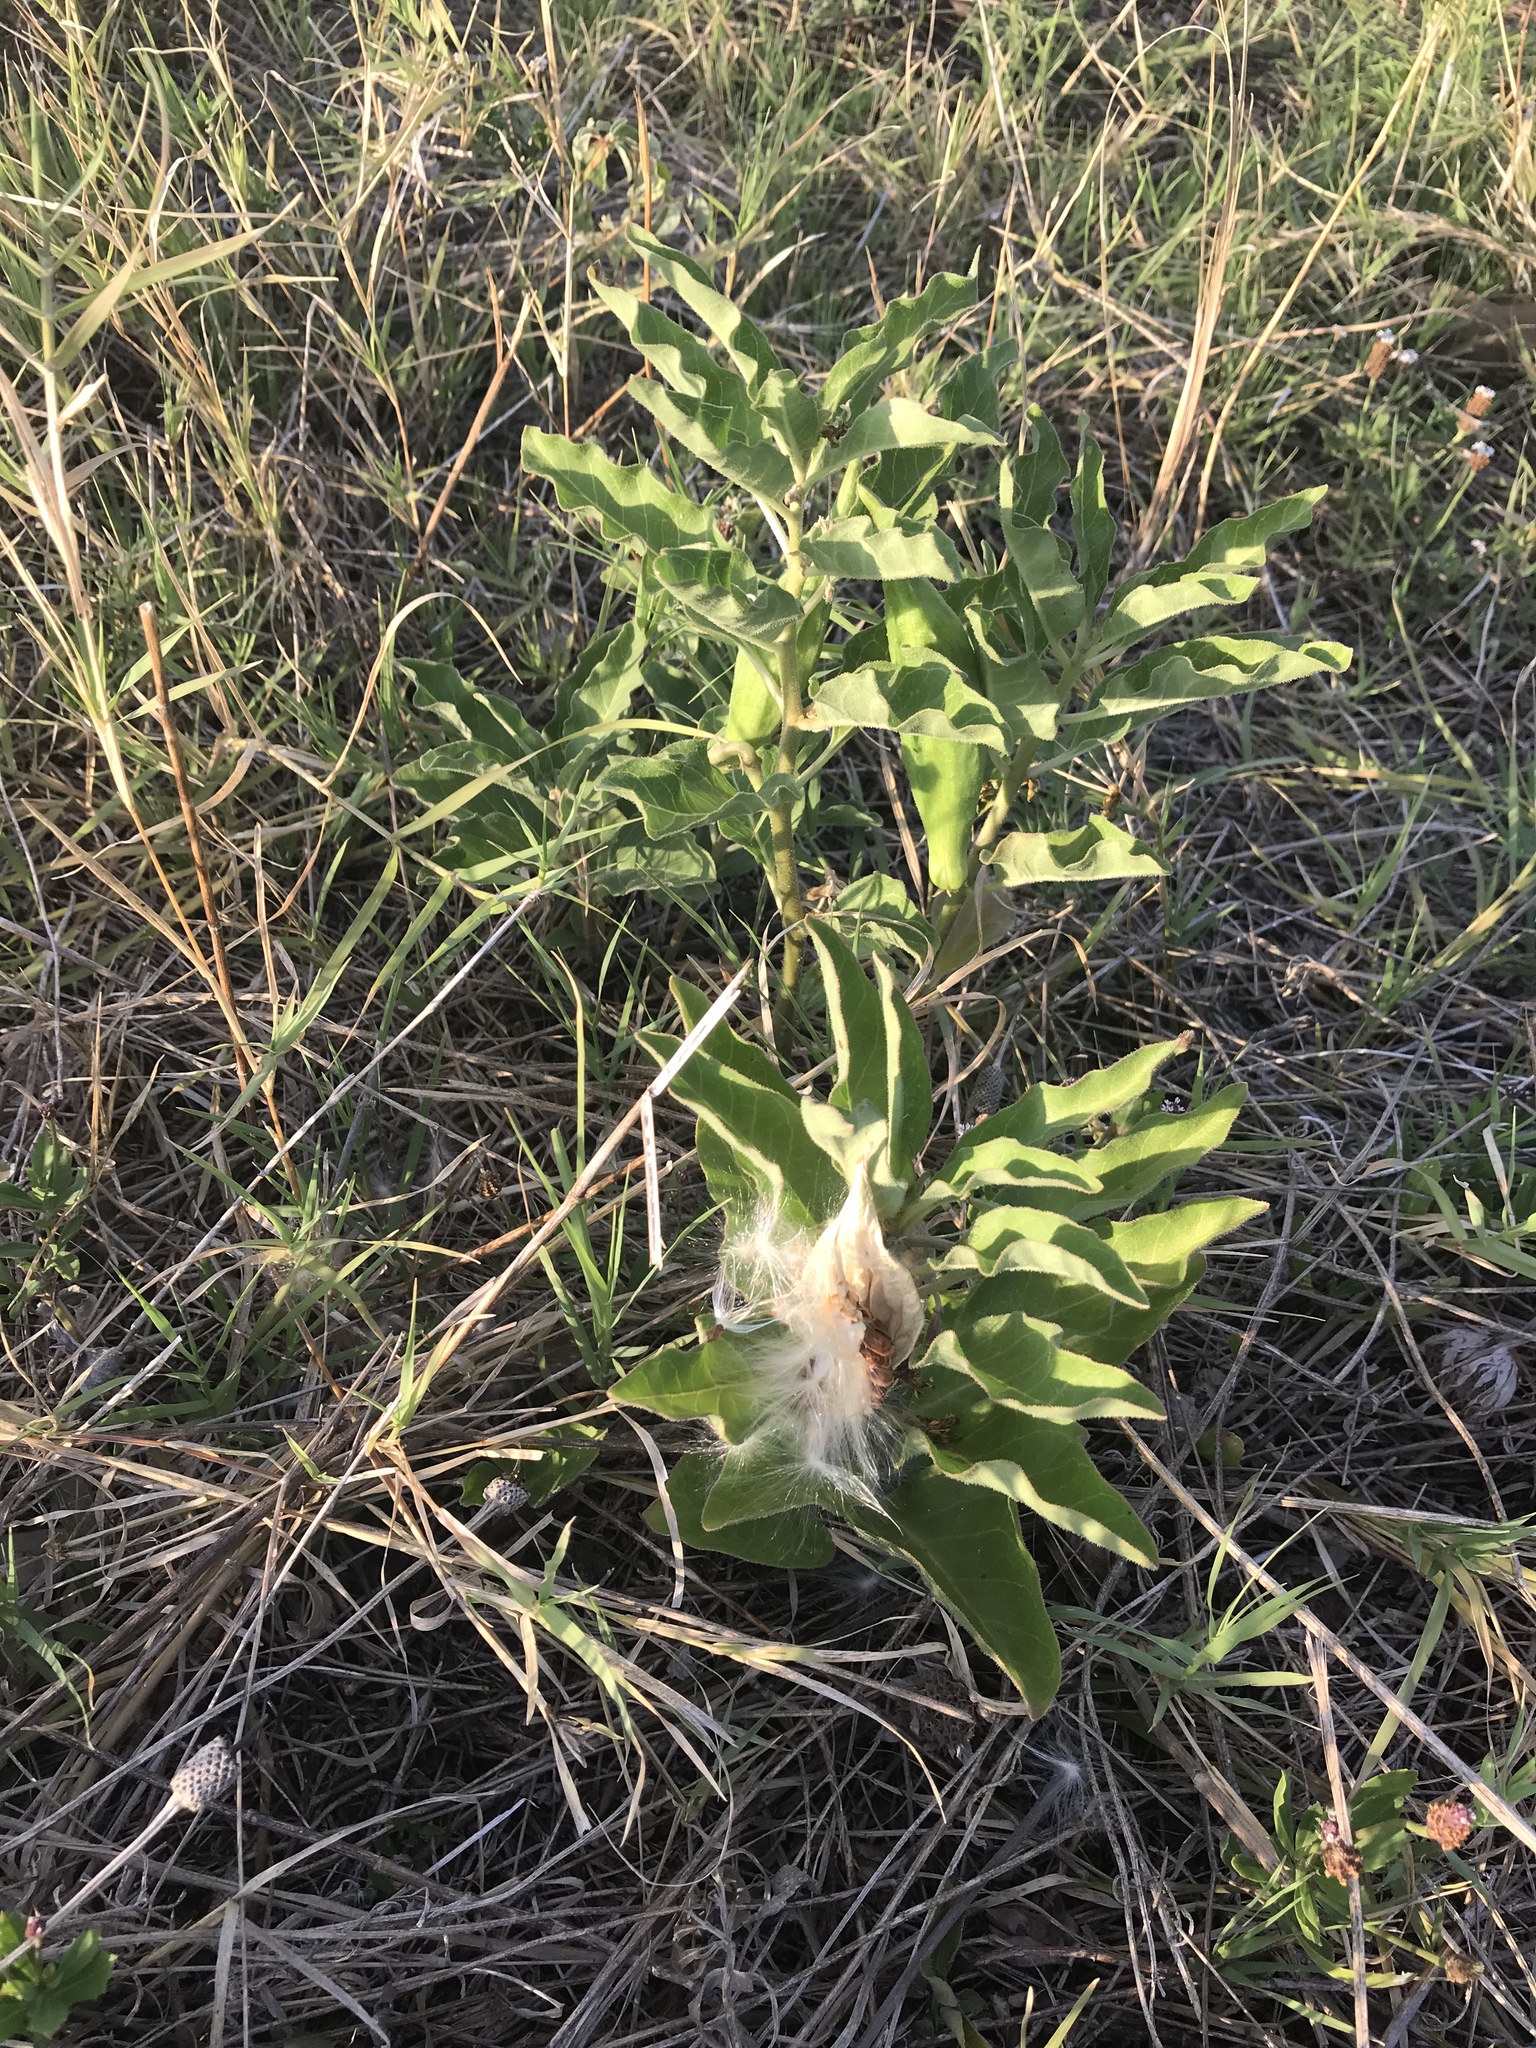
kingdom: Plantae
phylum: Tracheophyta
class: Magnoliopsida
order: Gentianales
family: Apocynaceae
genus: Asclepias
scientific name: Asclepias oenotheroides
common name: Zizotes milkweed
